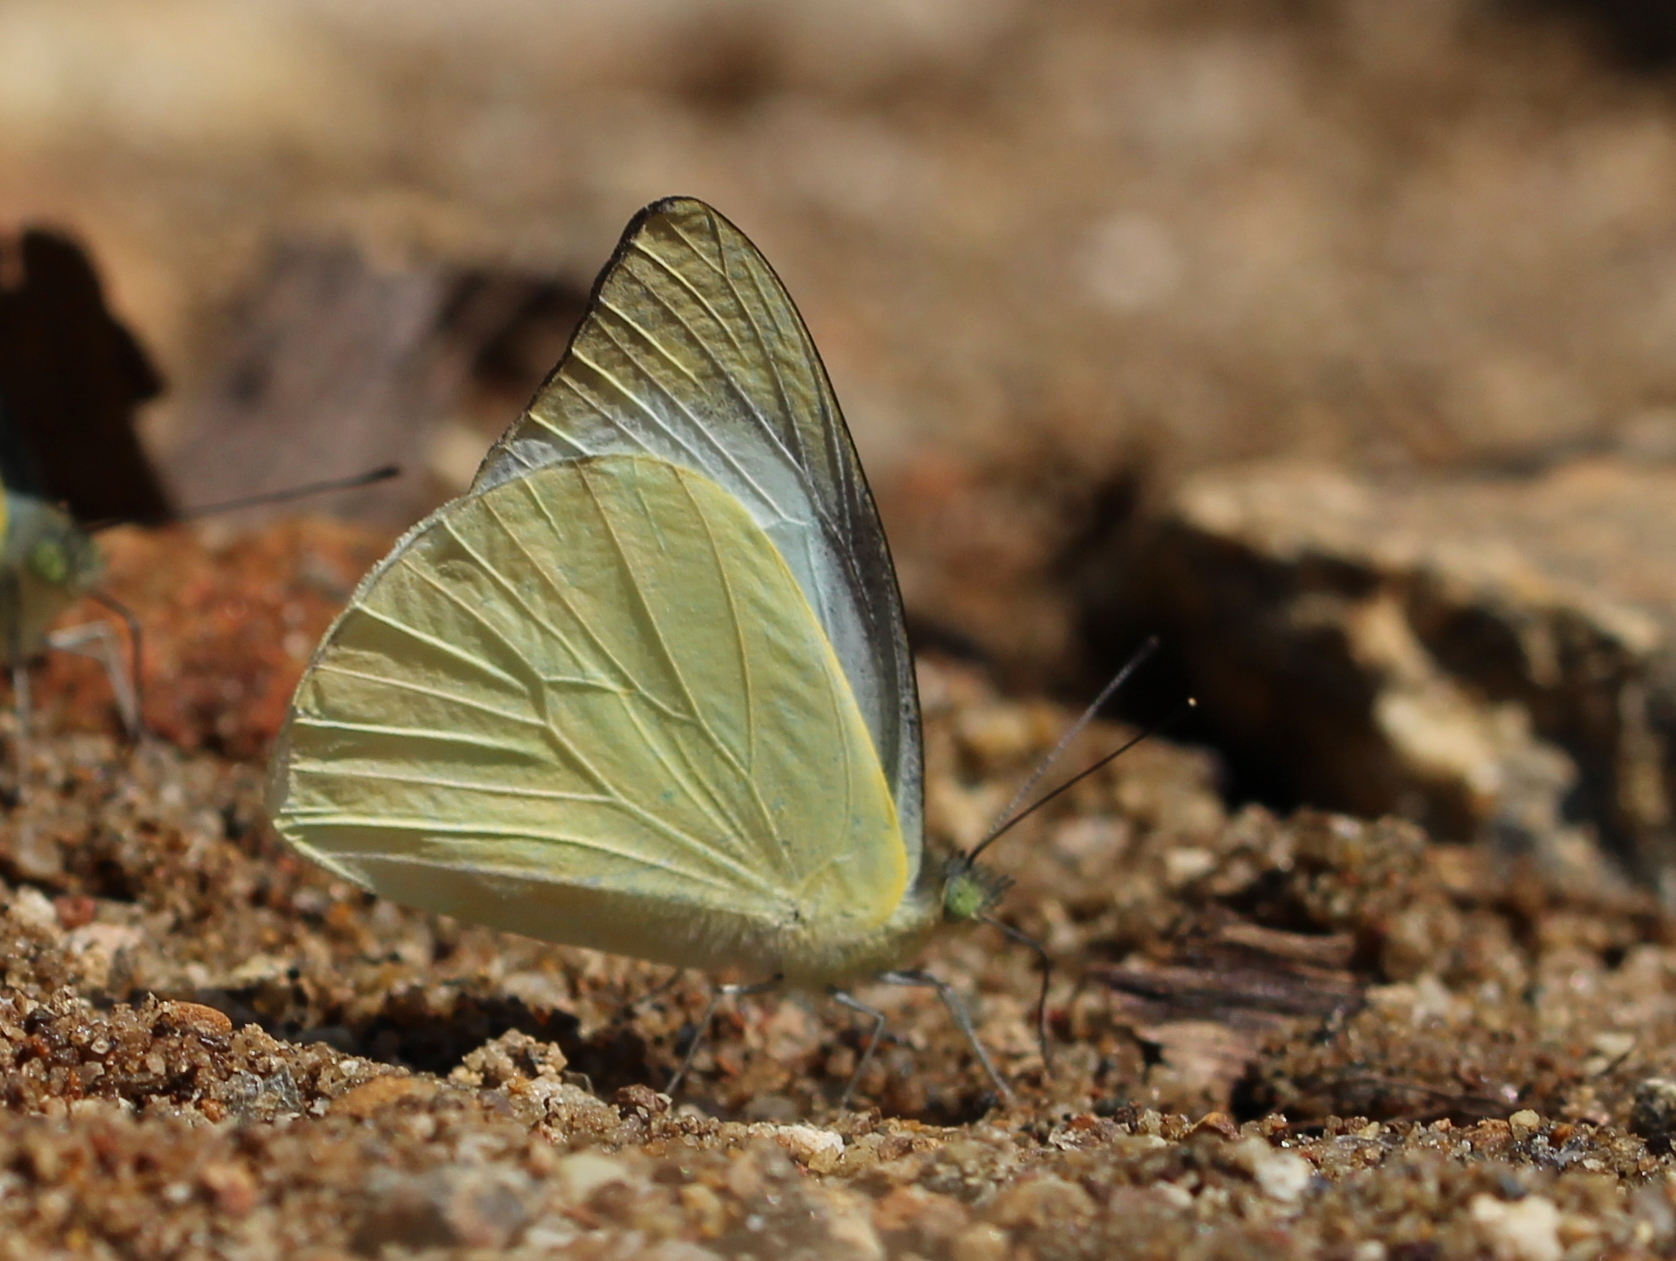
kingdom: Animalia
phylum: Arthropoda
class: Insecta
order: Lepidoptera
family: Pieridae
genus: Appias
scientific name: Appias albina
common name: Common albatross
